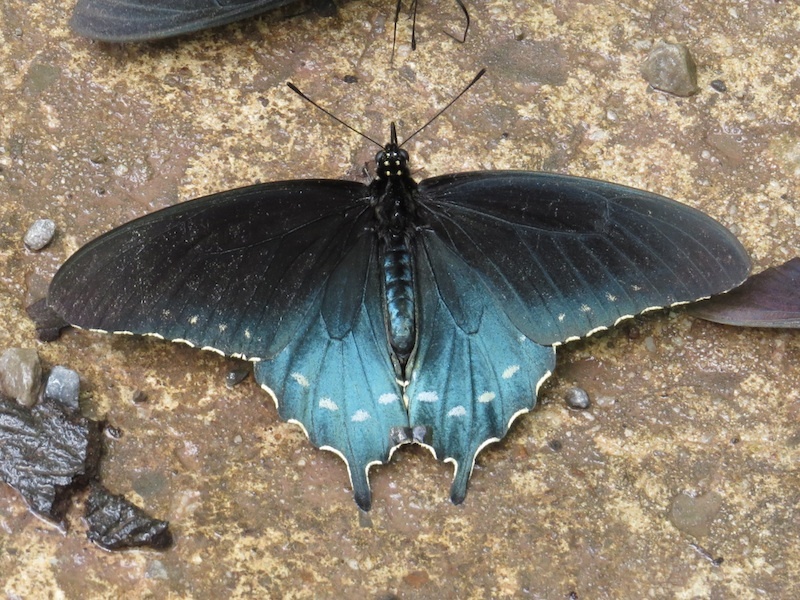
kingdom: Animalia
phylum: Arthropoda
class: Insecta
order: Lepidoptera
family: Papilionidae
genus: Battus
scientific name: Battus philenor
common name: Pipevine swallowtail
